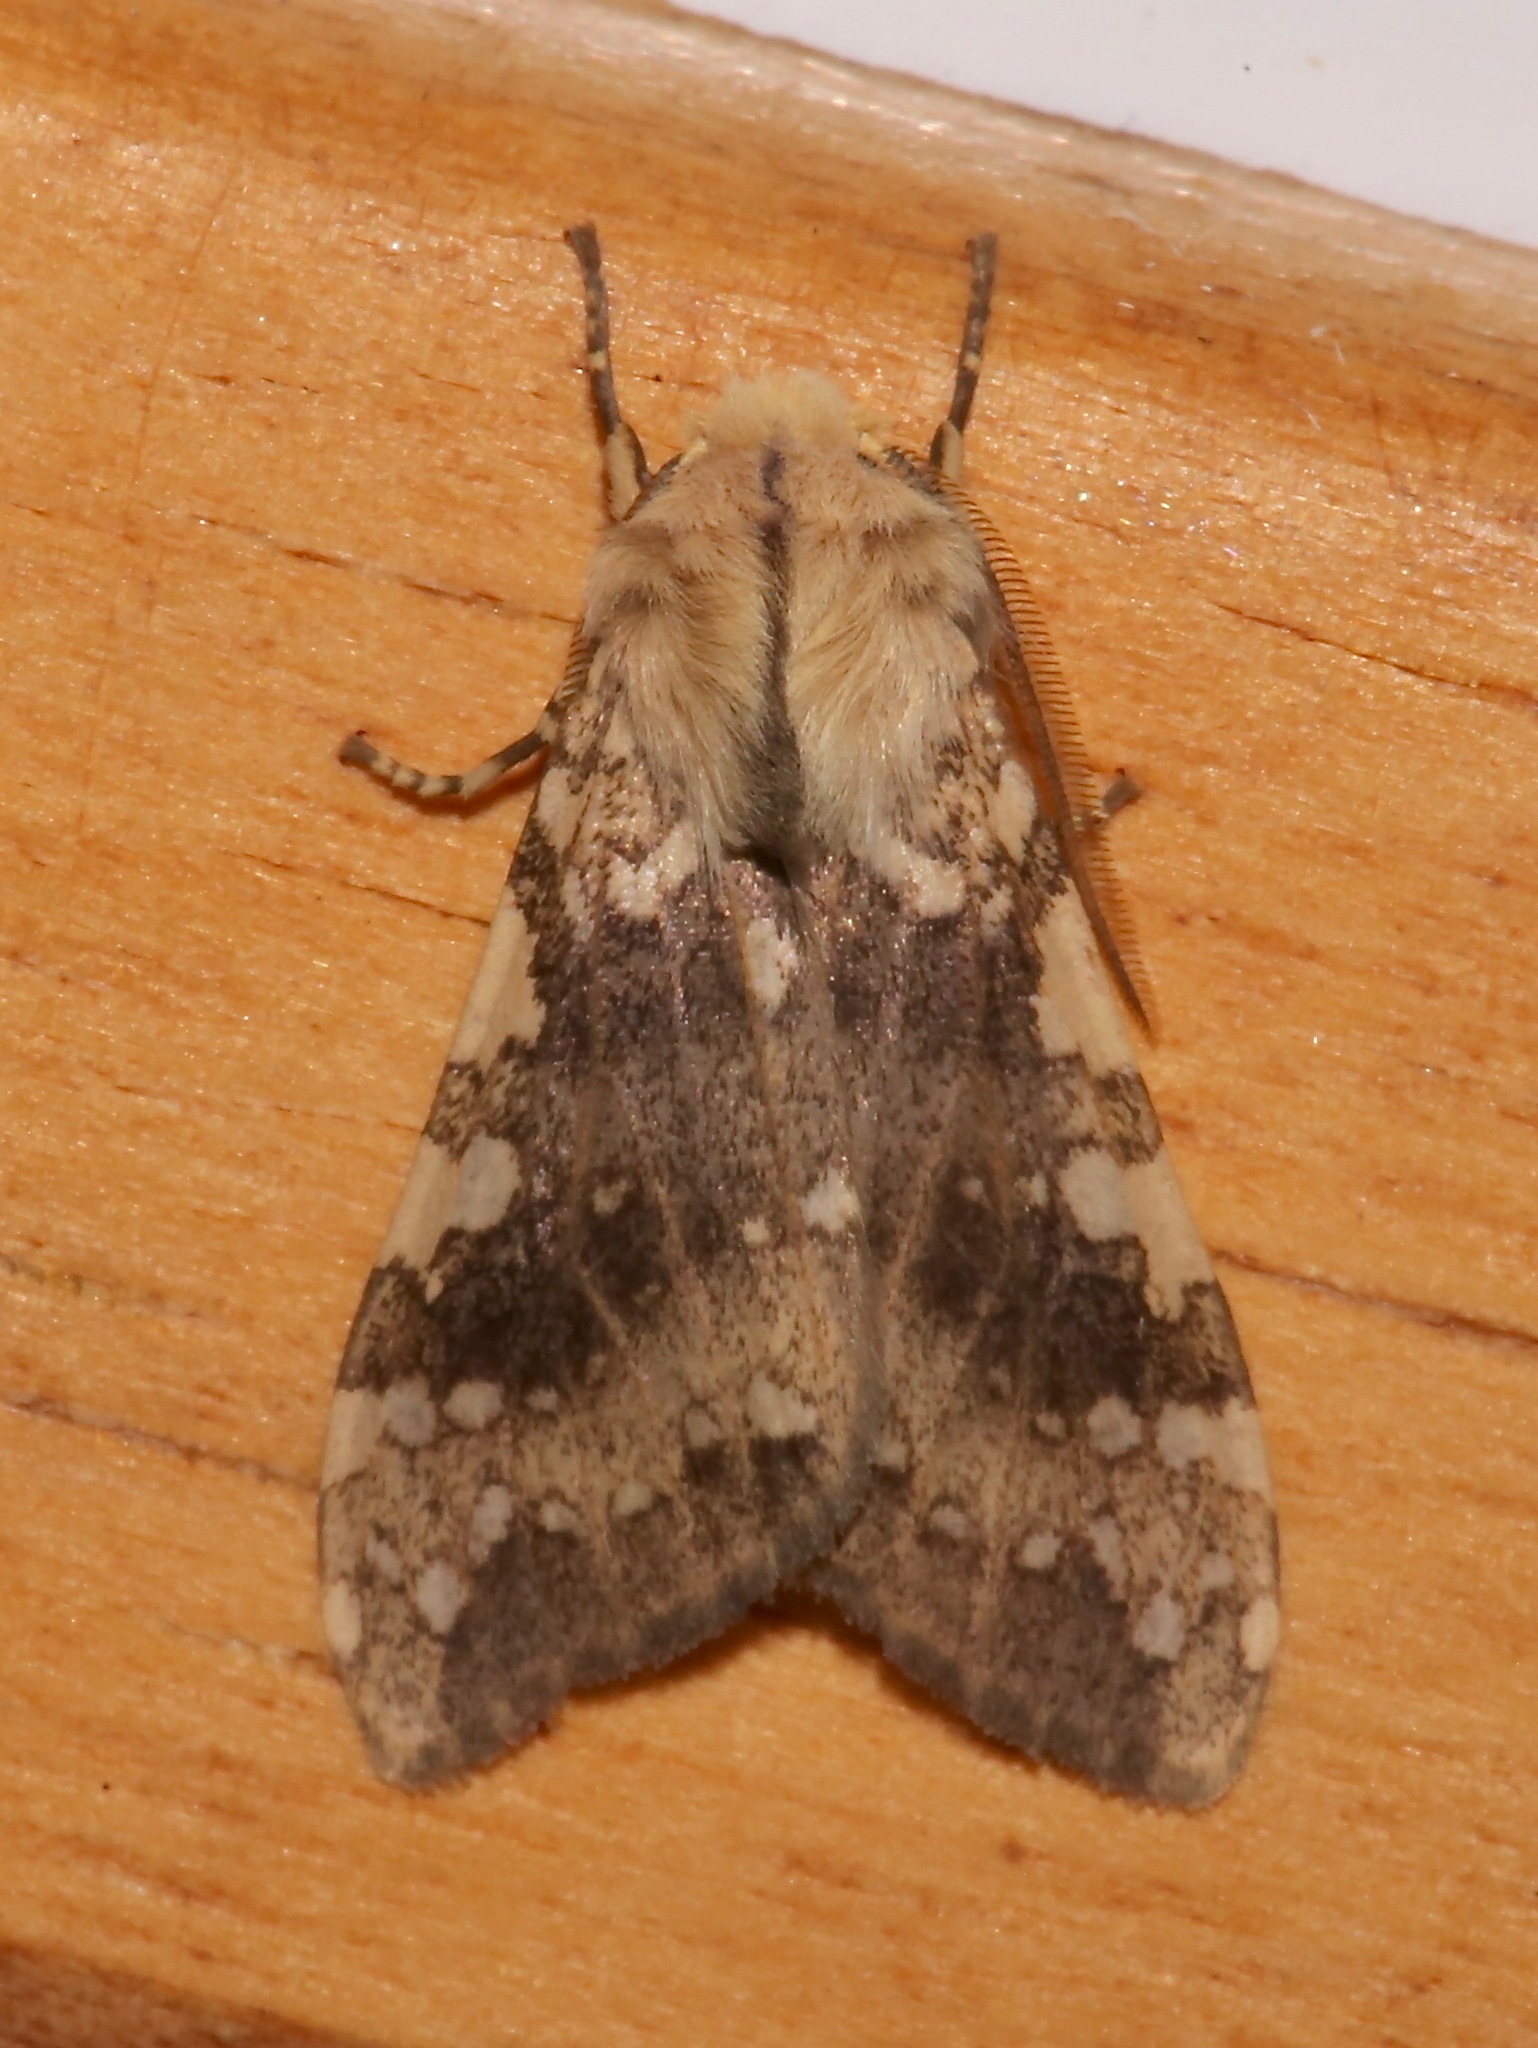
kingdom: Animalia
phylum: Arthropoda
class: Insecta
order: Lepidoptera
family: Erebidae
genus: Hypocrisias
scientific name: Hypocrisias minima
